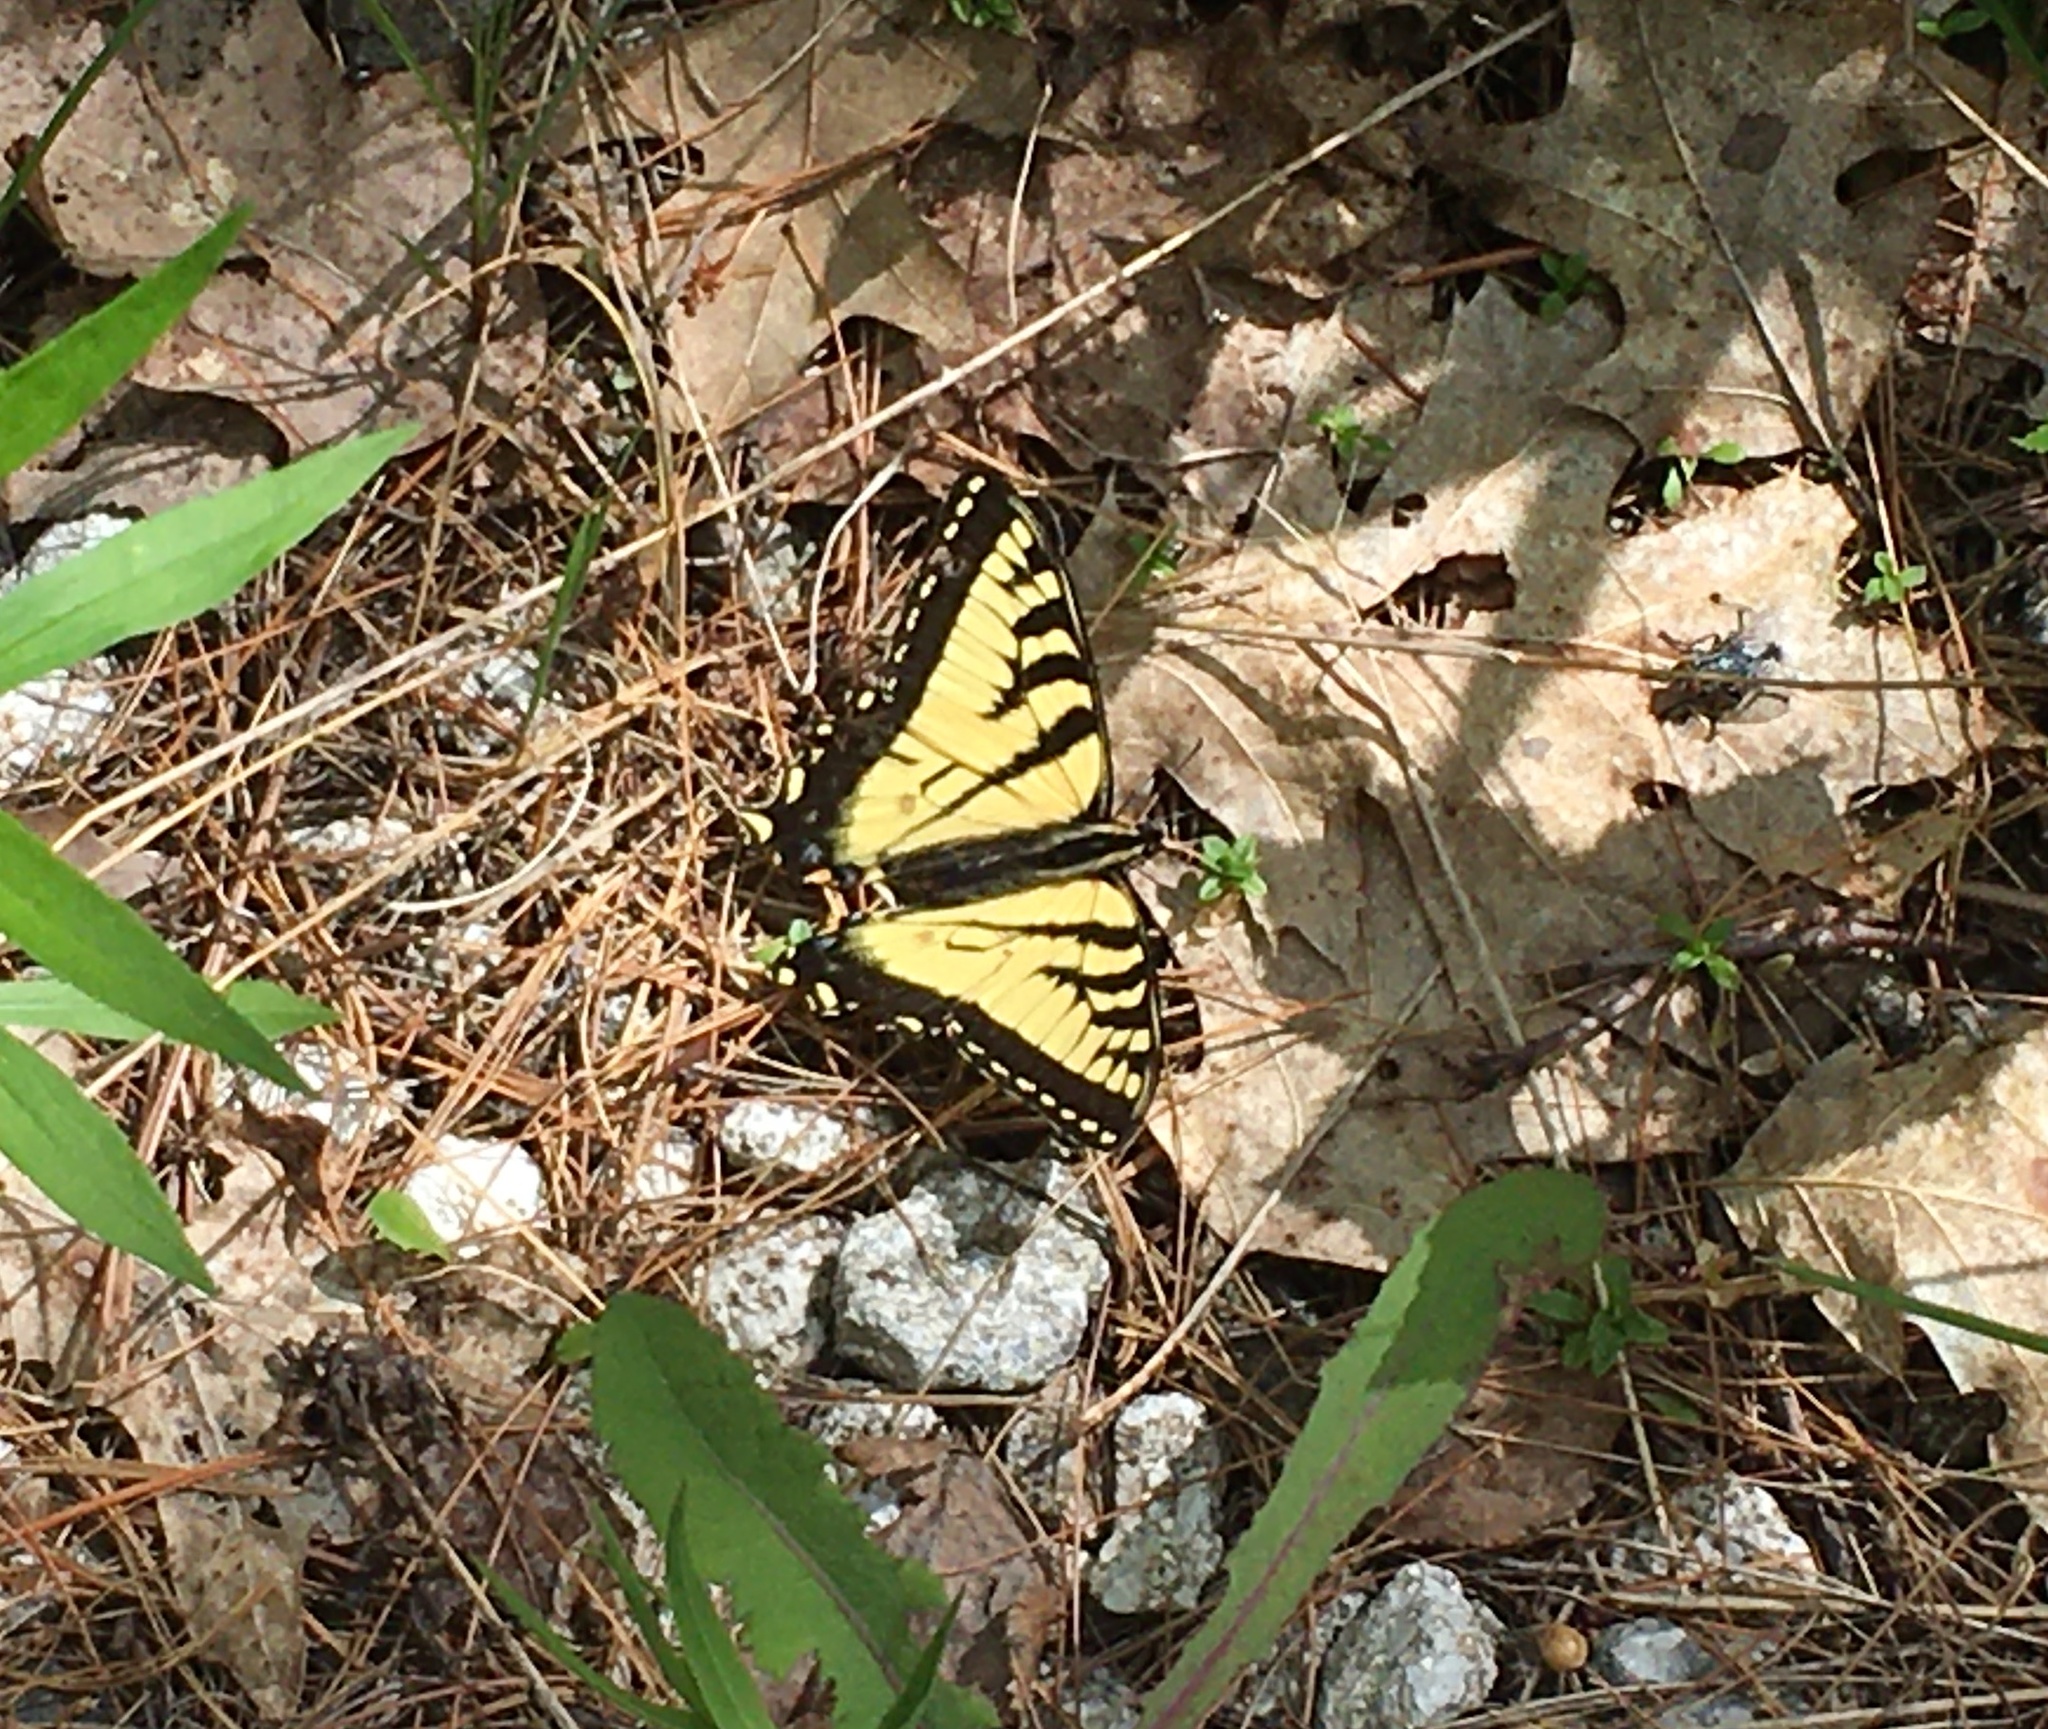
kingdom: Animalia
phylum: Arthropoda
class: Insecta
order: Lepidoptera
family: Papilionidae
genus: Papilio
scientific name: Papilio canadensis
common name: Canadian tiger swallowtail
